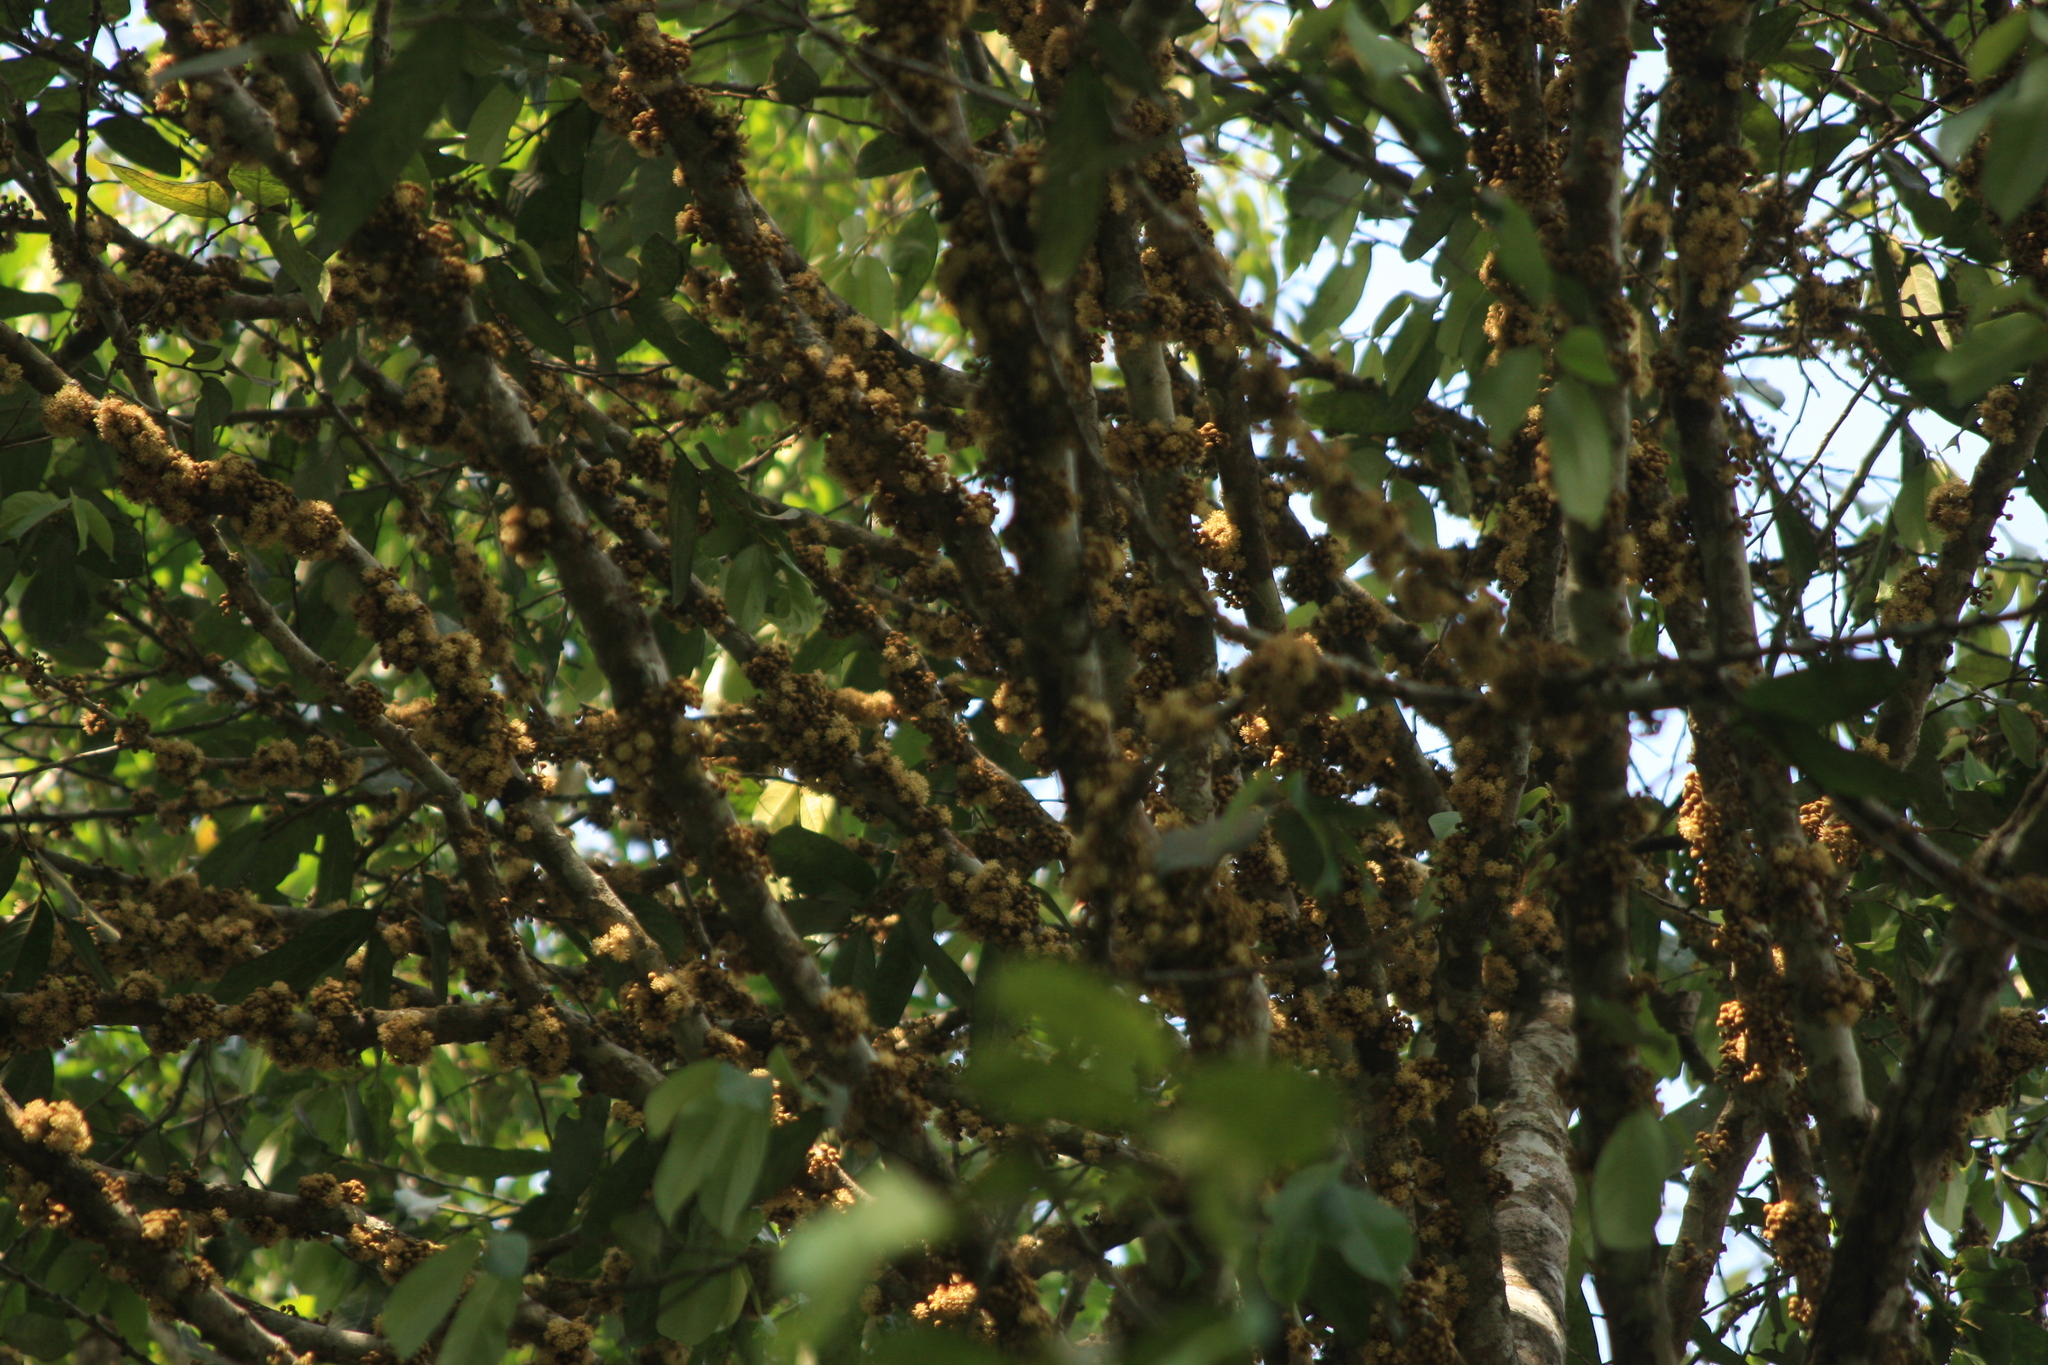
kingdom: Plantae
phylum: Tracheophyta
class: Magnoliopsida
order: Malpighiales
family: Putranjivaceae
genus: Drypetes
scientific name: Drypetes malabarica
